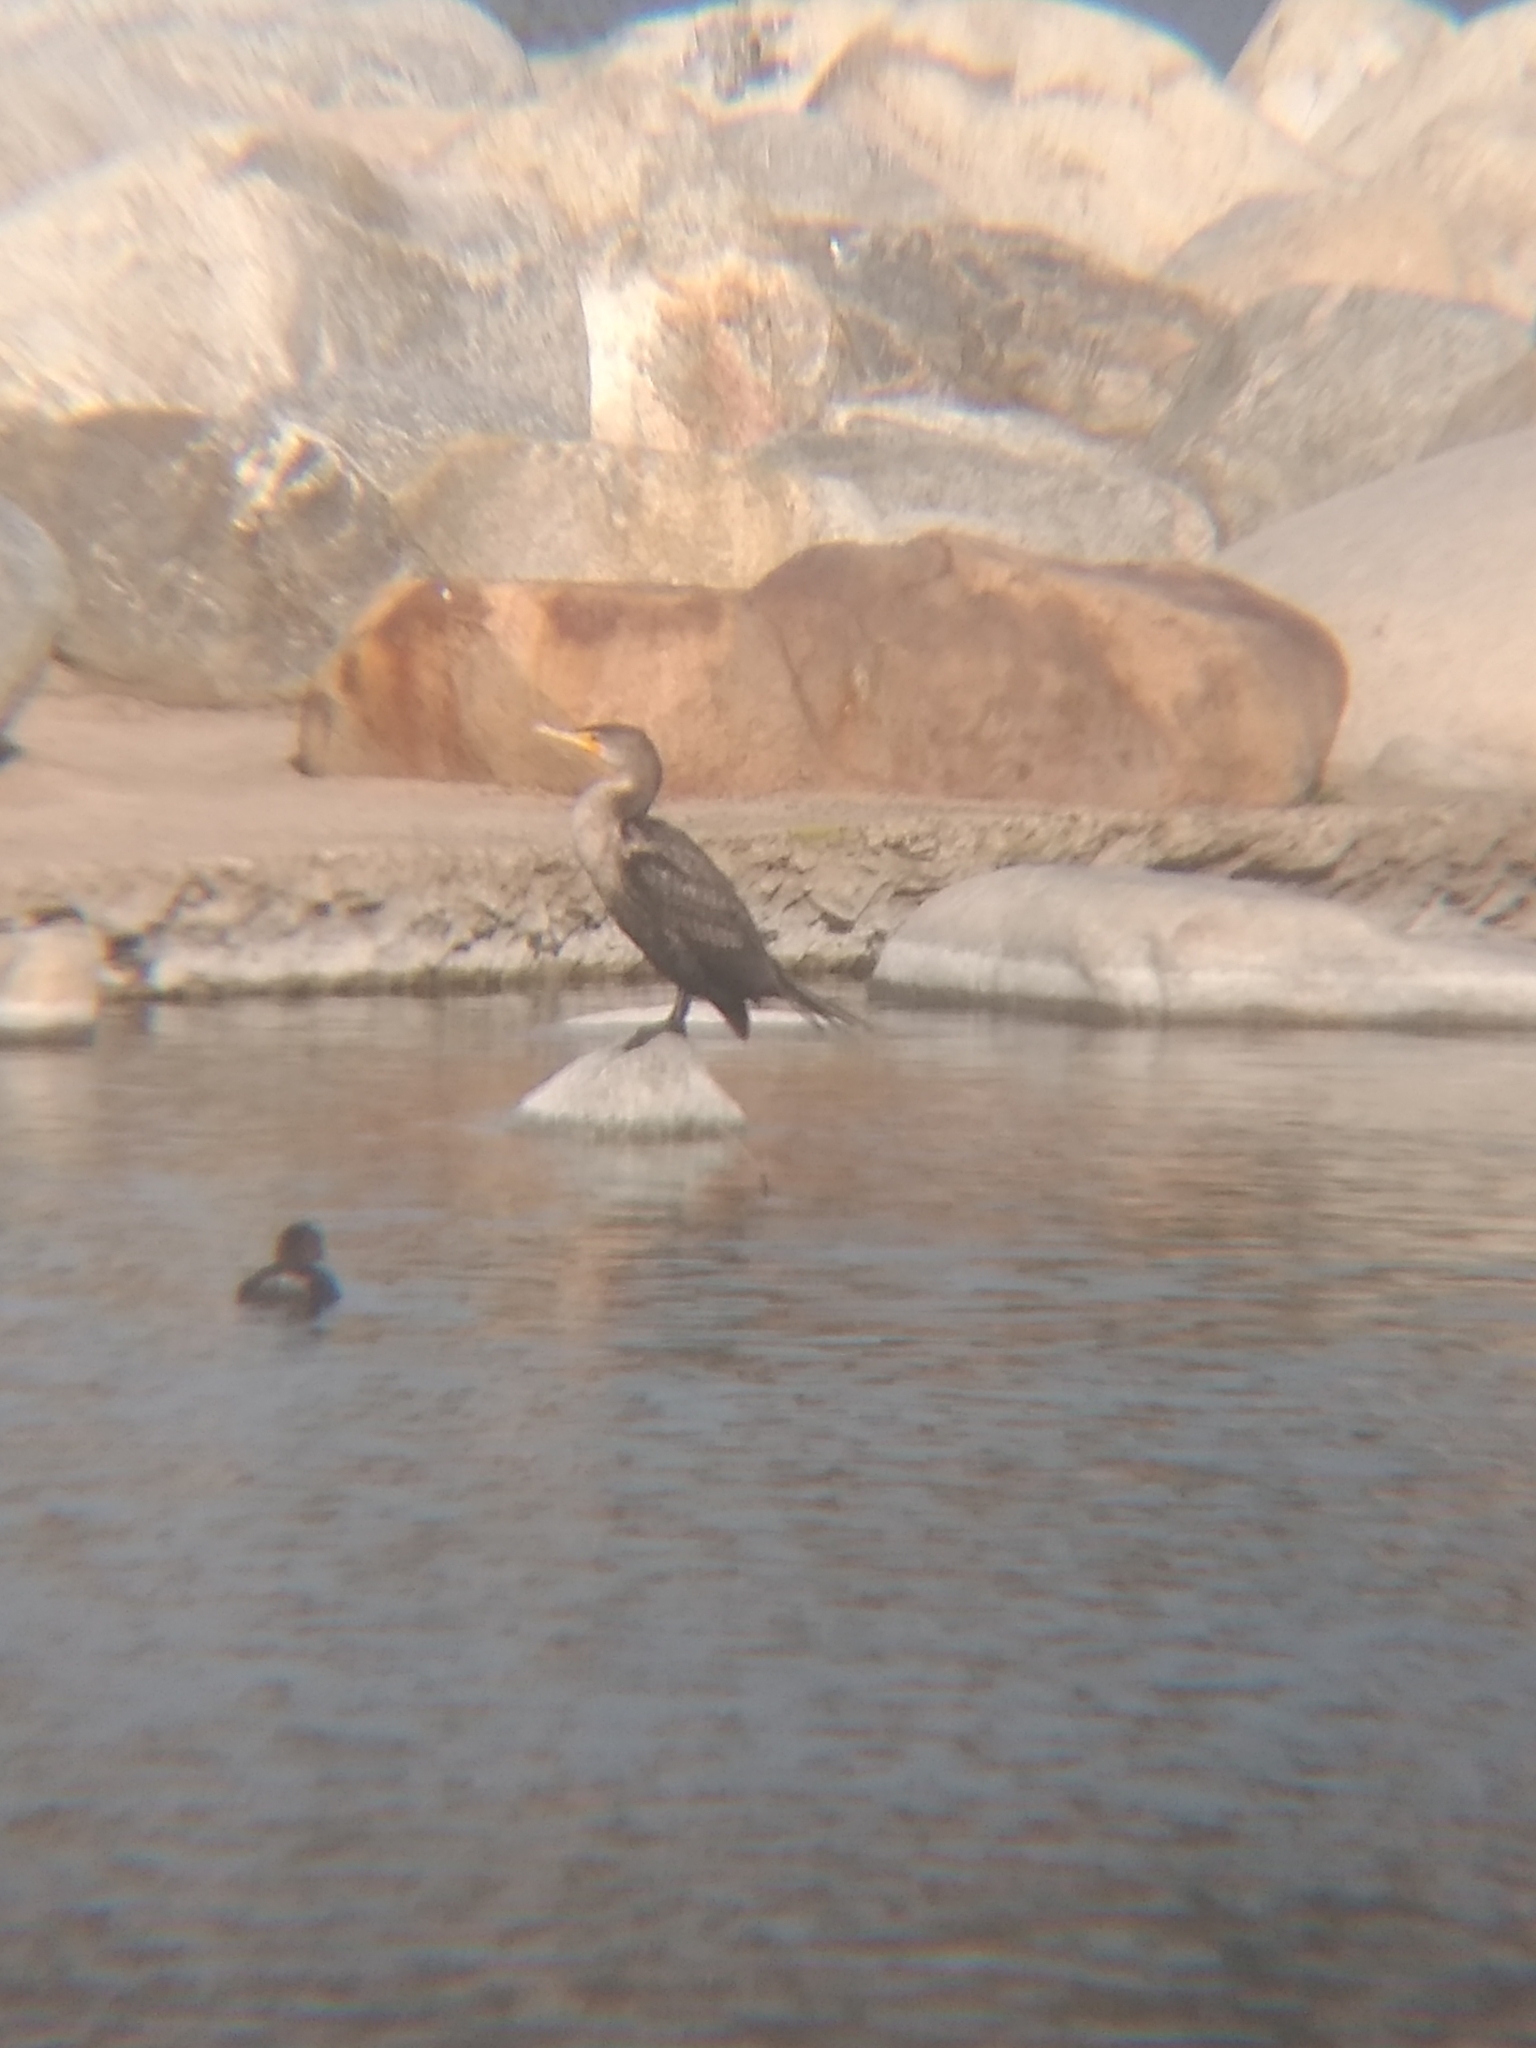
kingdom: Animalia
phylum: Chordata
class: Aves
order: Suliformes
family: Phalacrocoracidae
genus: Phalacrocorax
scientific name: Phalacrocorax auritus
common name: Double-crested cormorant
